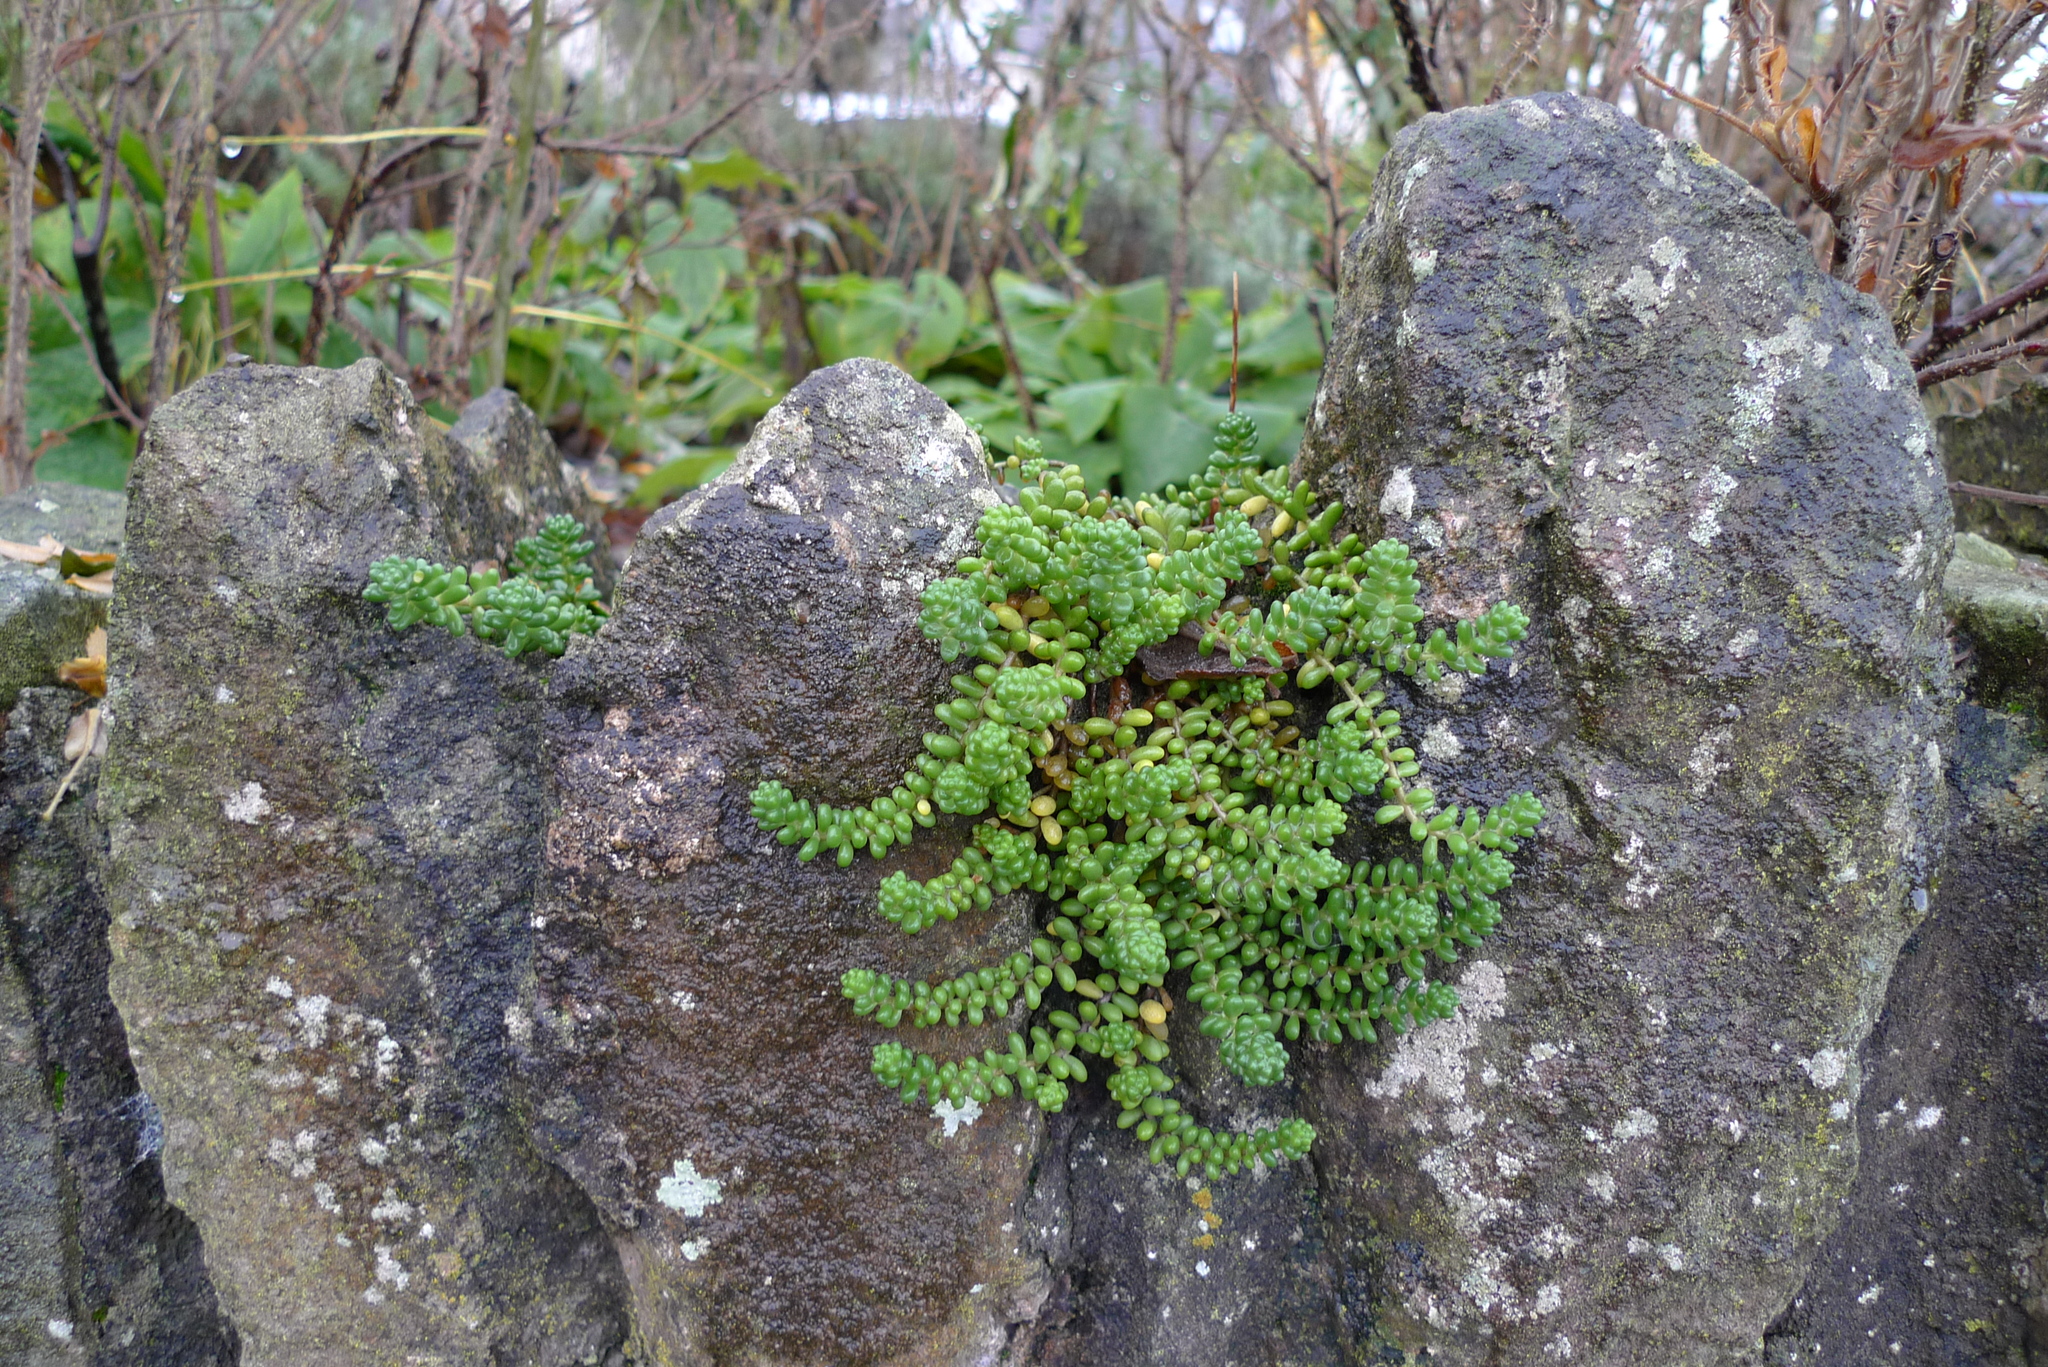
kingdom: Plantae
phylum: Tracheophyta
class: Magnoliopsida
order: Saxifragales
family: Crassulaceae
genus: Sedum
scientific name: Sedum album
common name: White stonecrop
